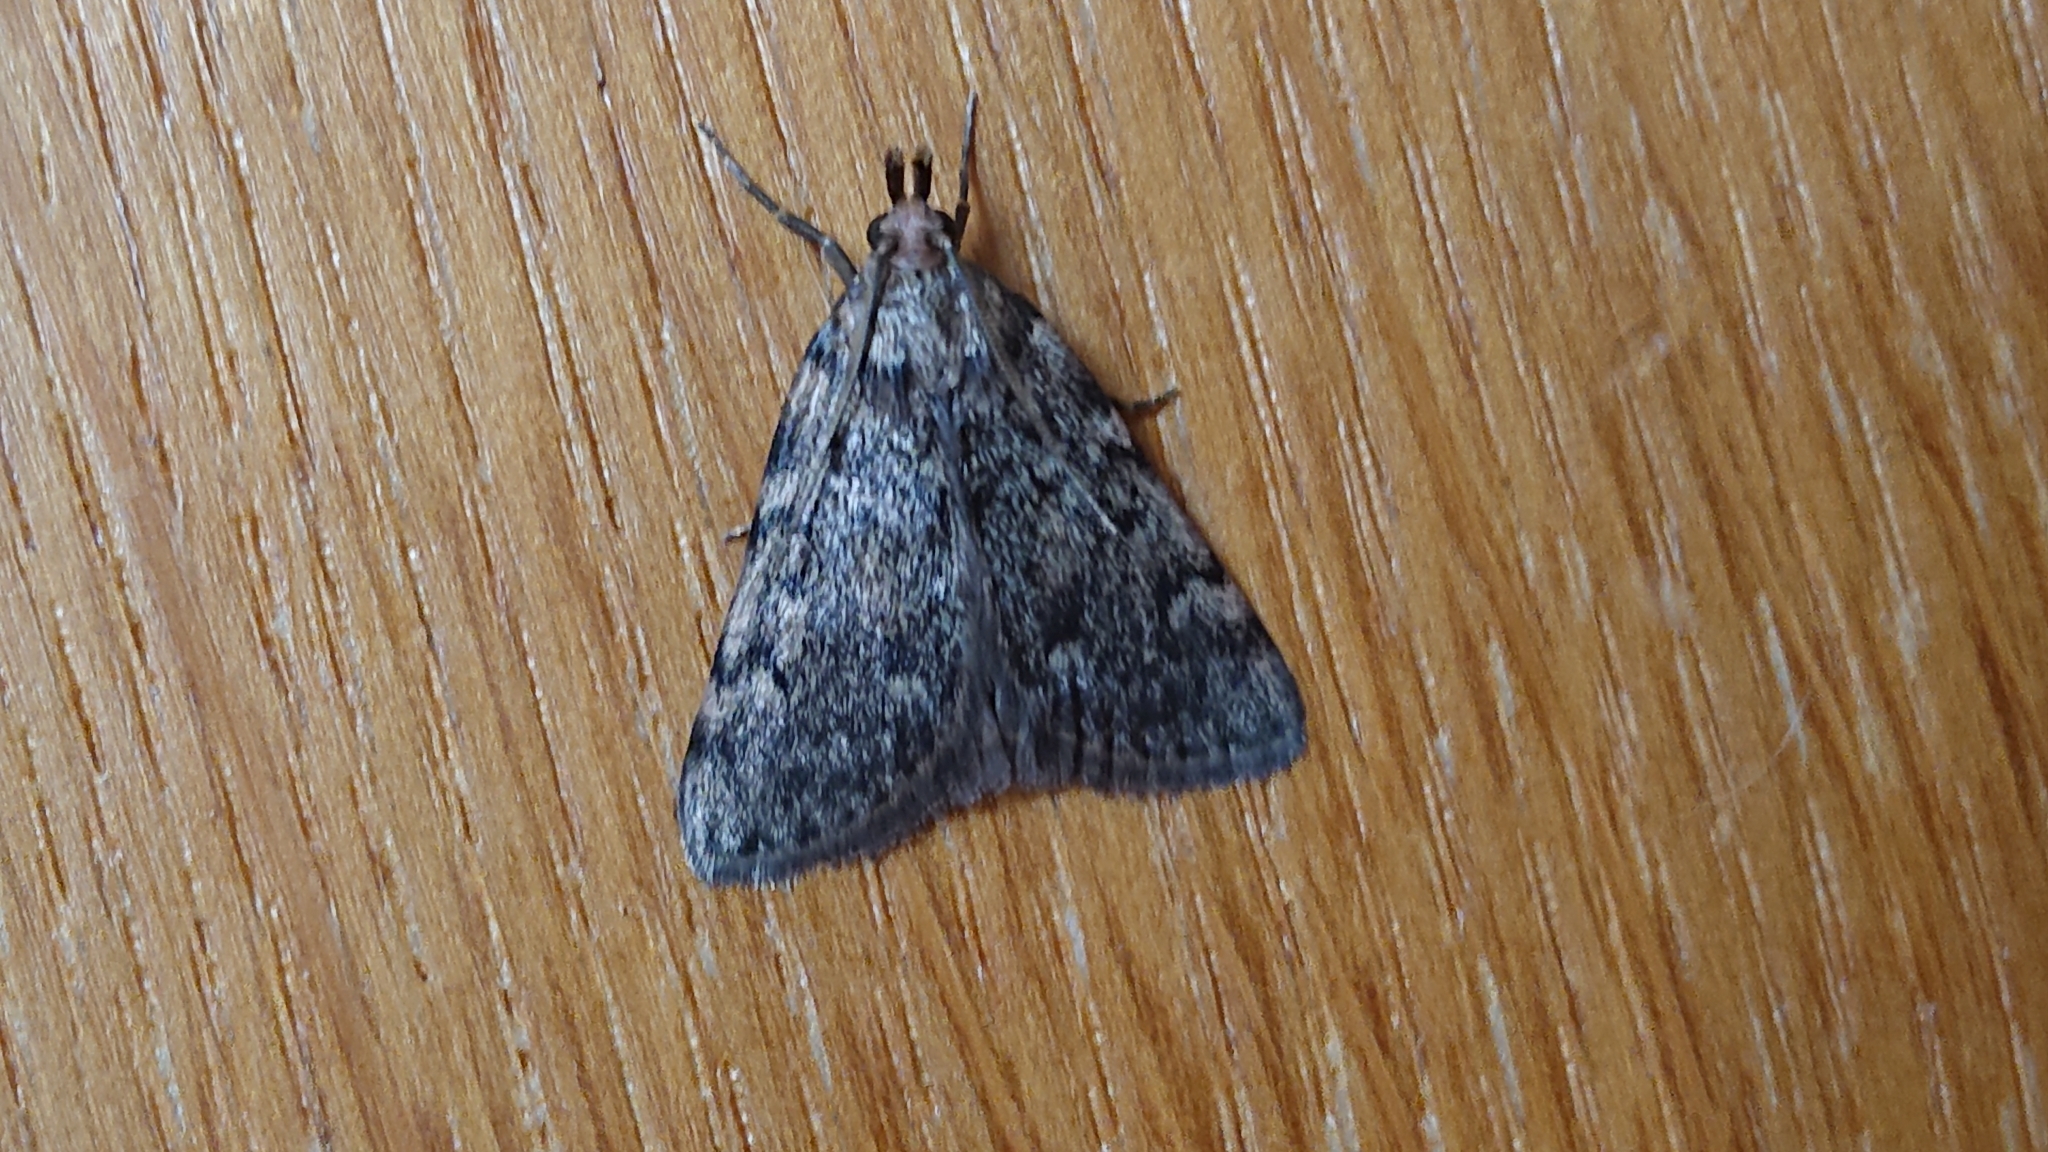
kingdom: Animalia
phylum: Arthropoda
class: Insecta
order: Lepidoptera
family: Pyralidae
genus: Aglossa
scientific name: Aglossa pinguinalis
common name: Large tabby
